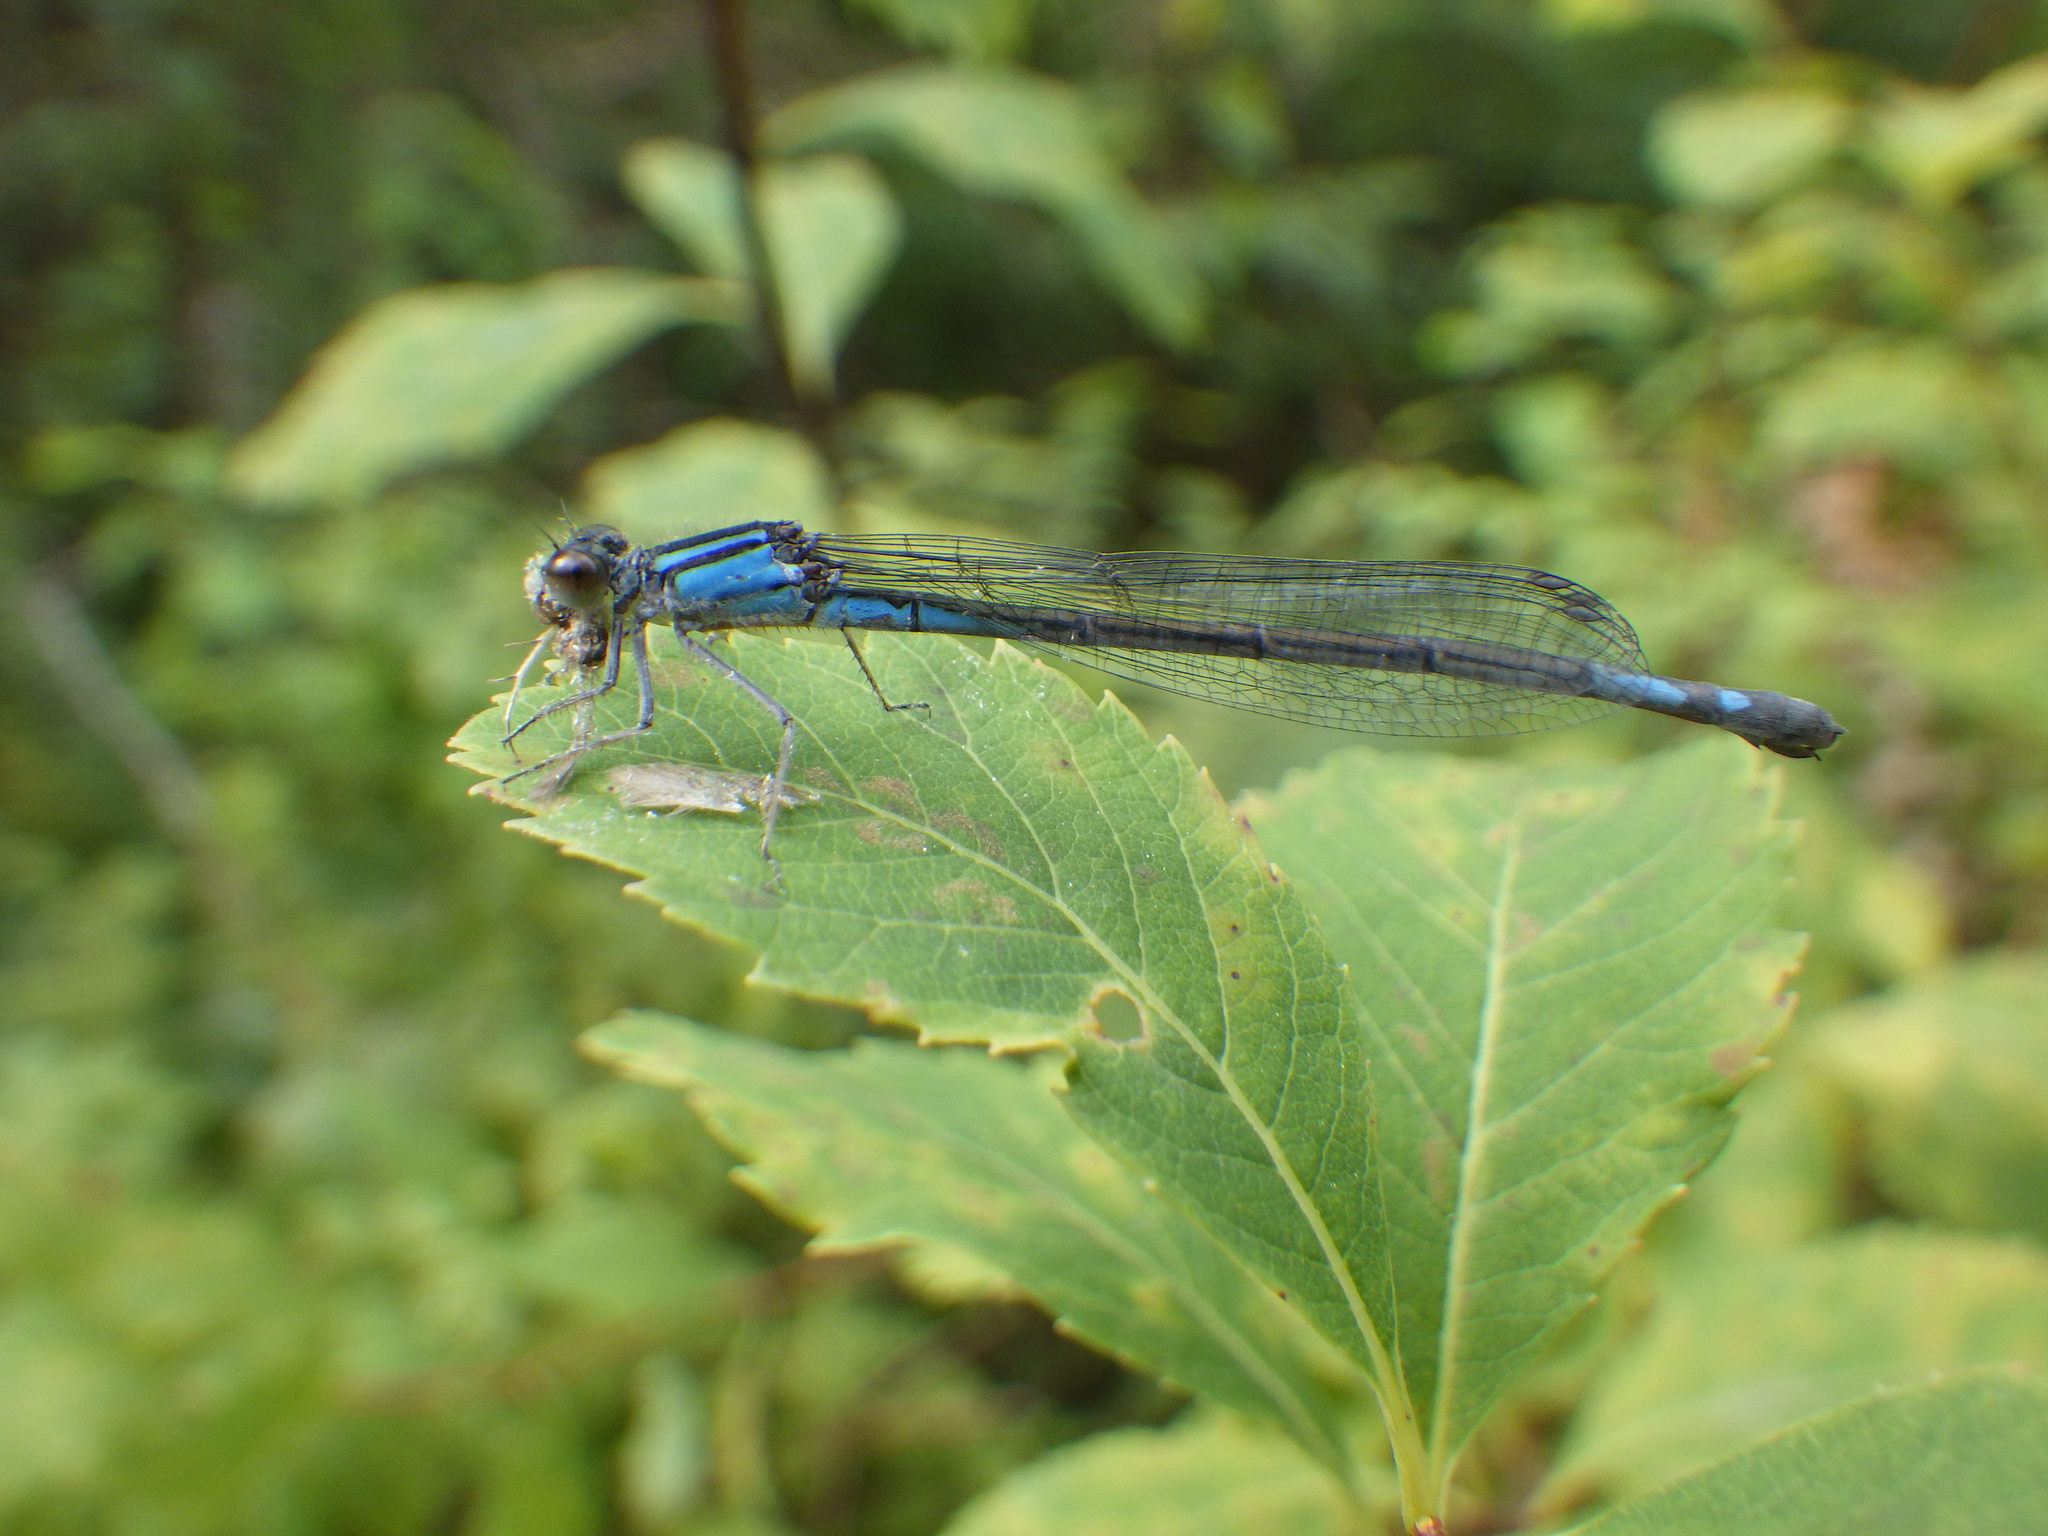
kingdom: Animalia
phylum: Arthropoda
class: Insecta
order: Odonata
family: Coenagrionidae
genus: Enallagma
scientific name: Enallagma aspersum
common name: Azure bluet
